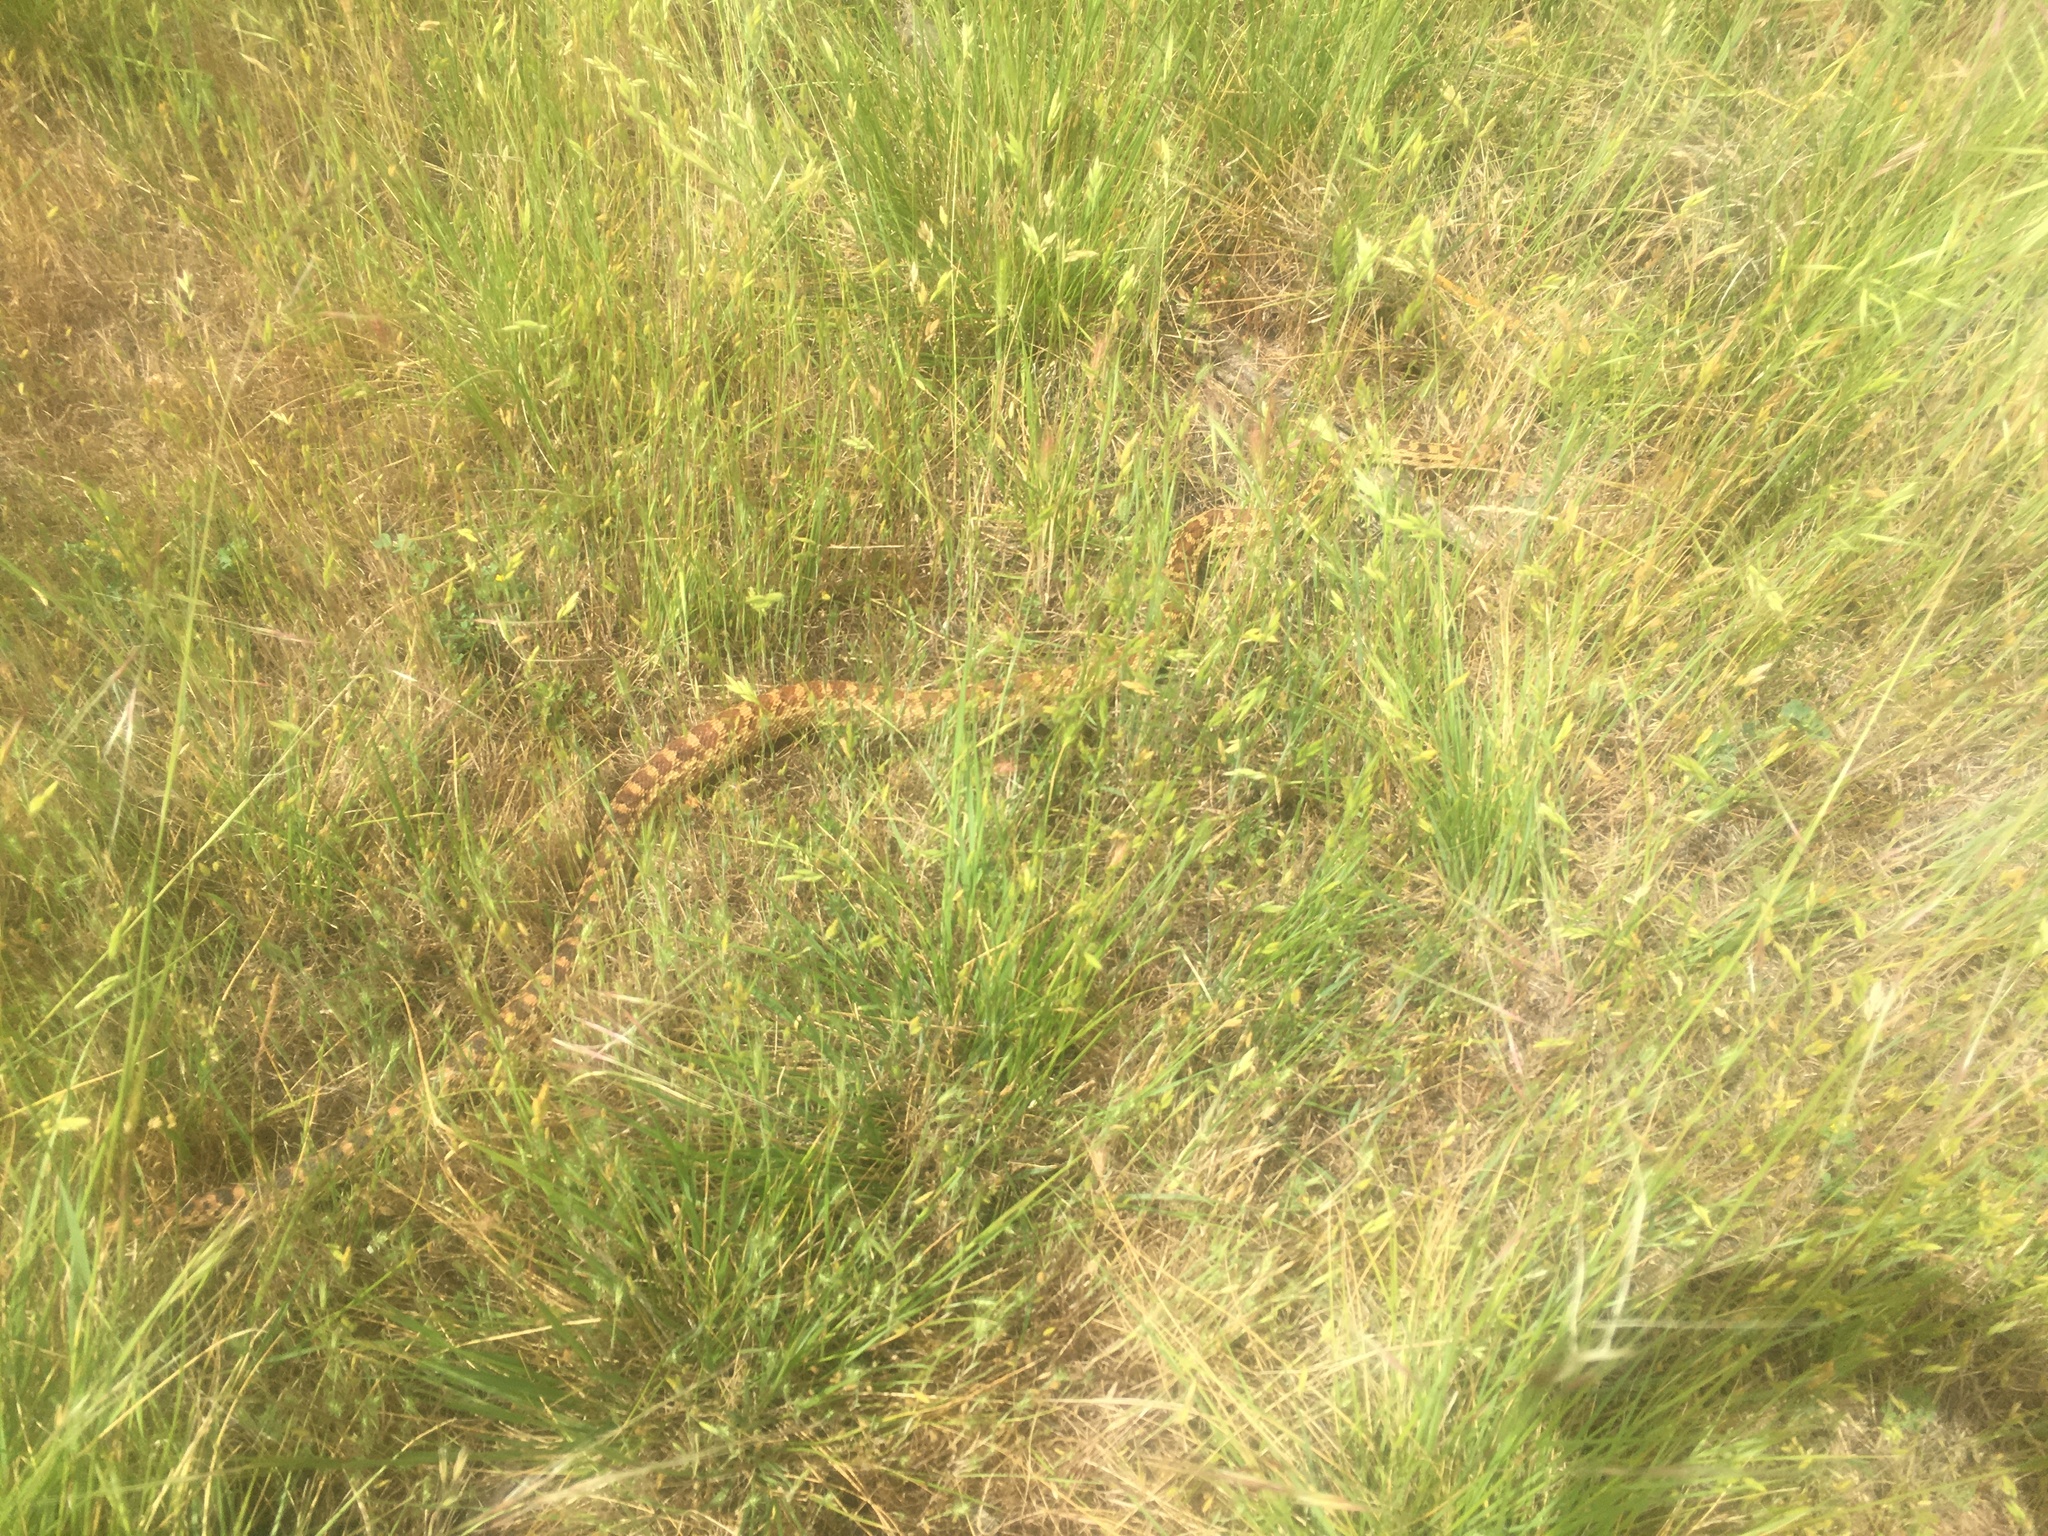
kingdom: Animalia
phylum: Chordata
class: Squamata
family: Colubridae
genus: Pituophis
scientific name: Pituophis catenifer
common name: Gopher snake
